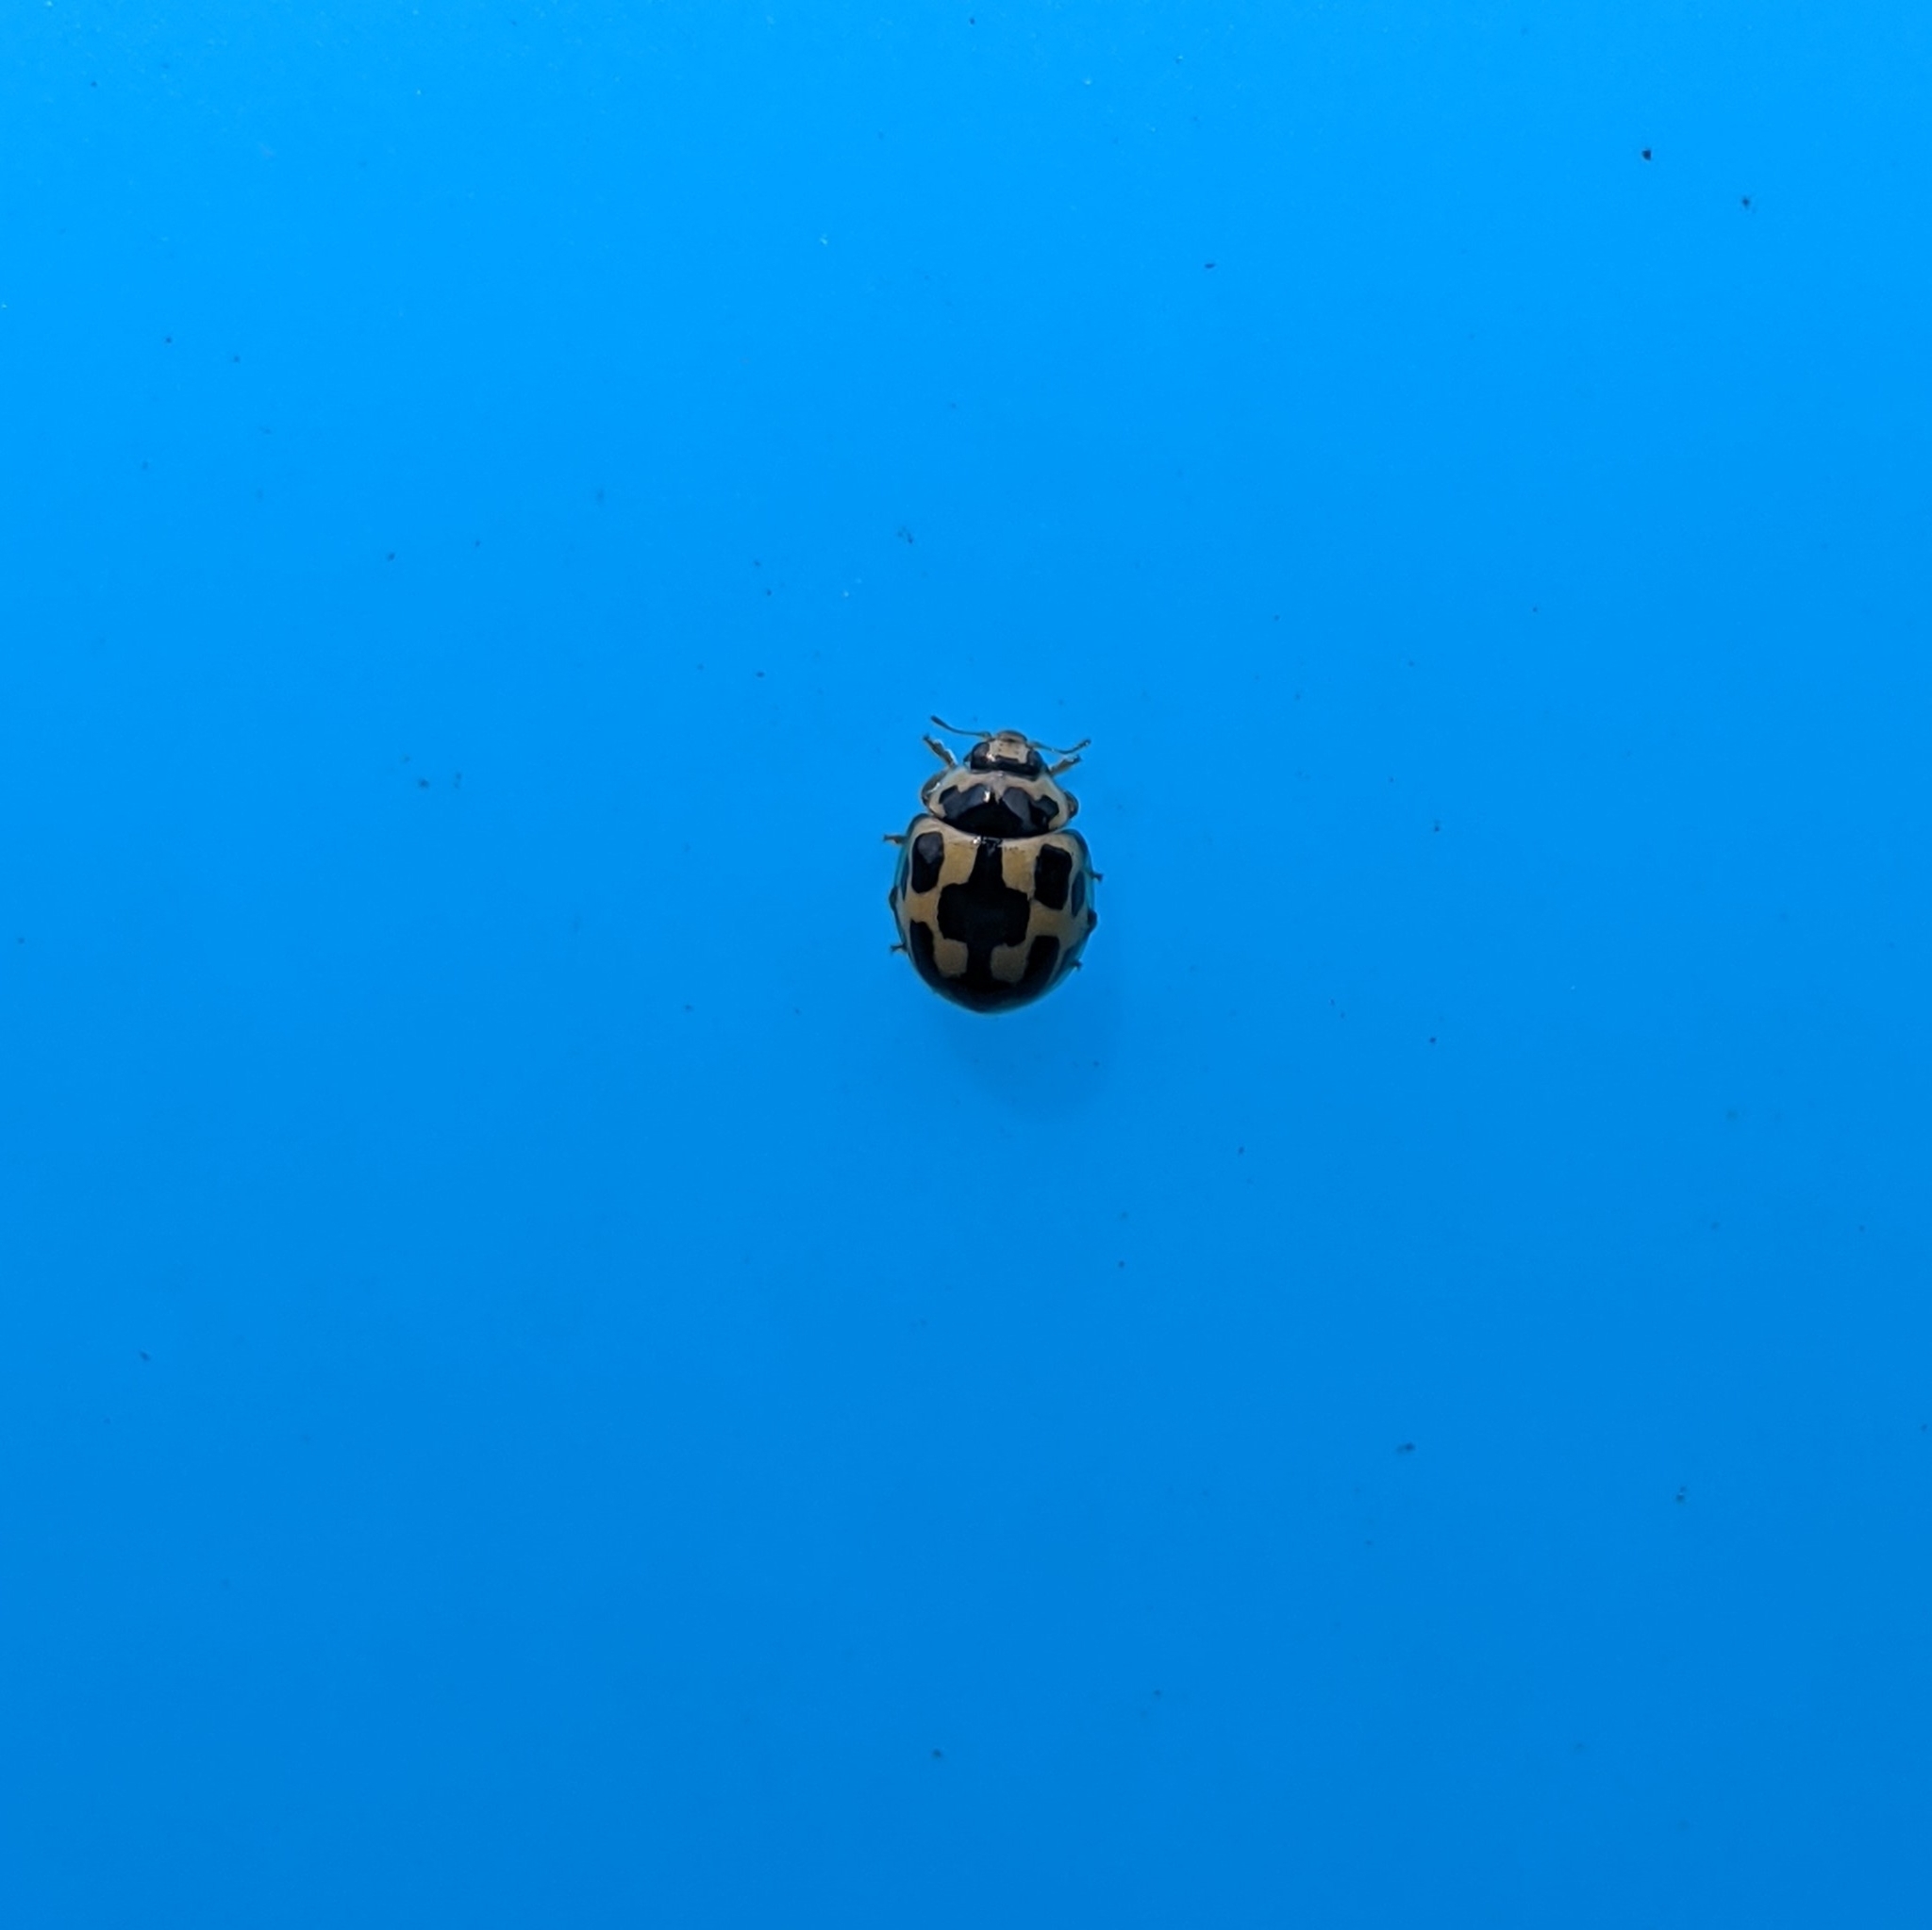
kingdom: Animalia
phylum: Arthropoda
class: Insecta
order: Coleoptera
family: Coccinellidae
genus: Propylaea
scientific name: Propylaea quatuordecimpunctata
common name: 14-spotted ladybird beetle
